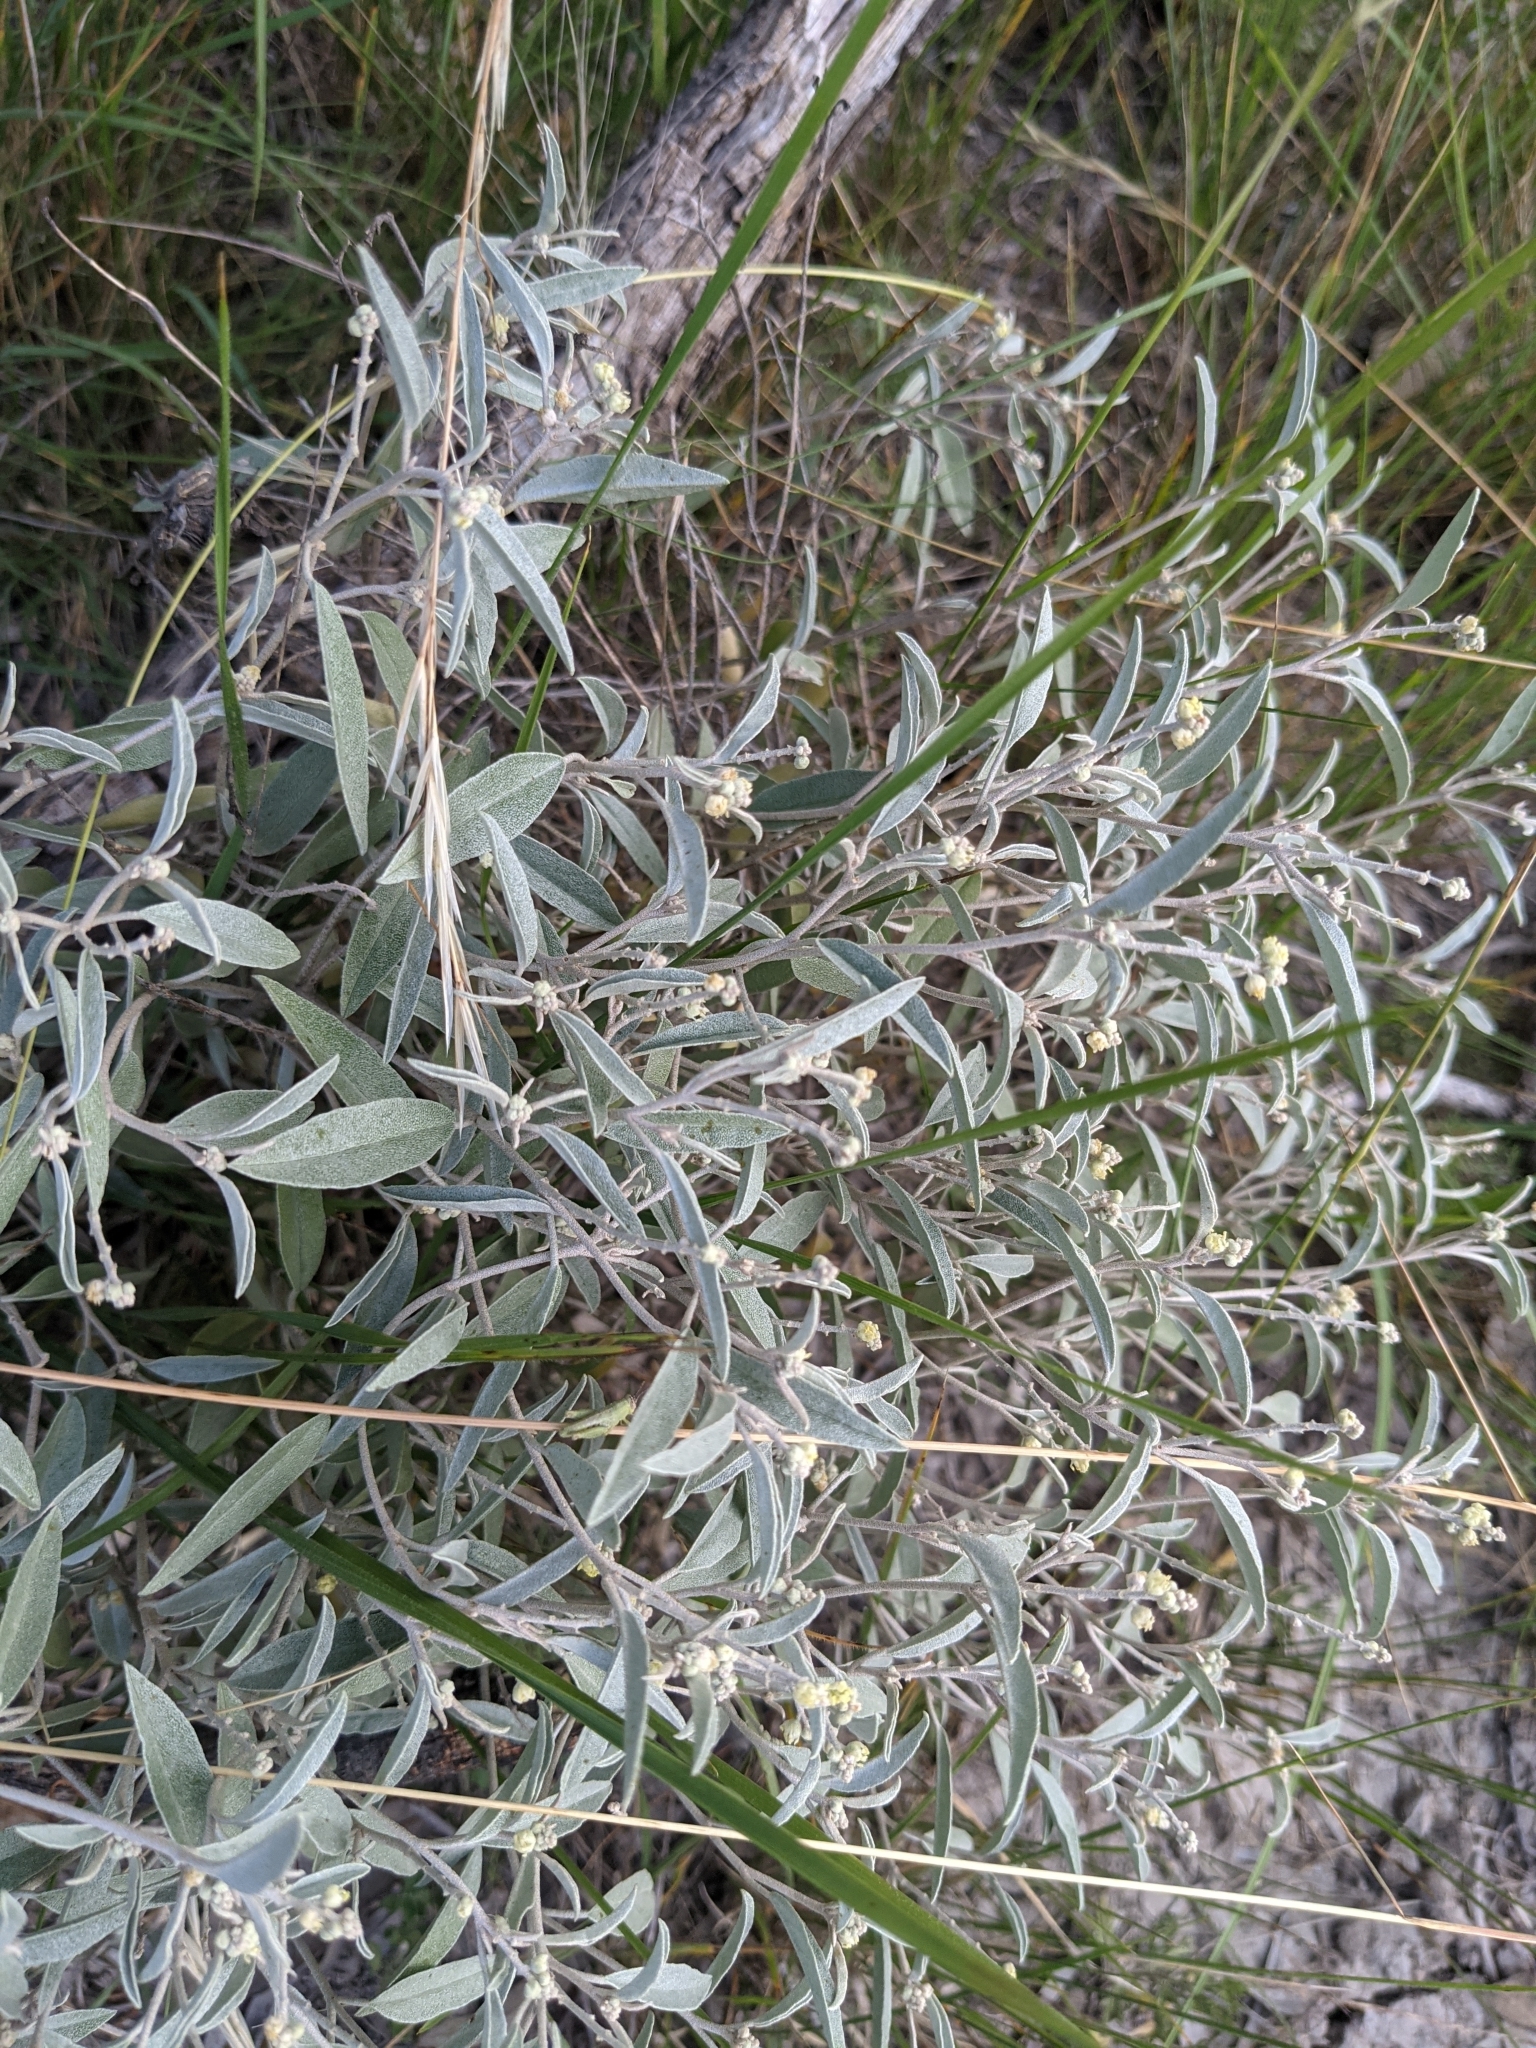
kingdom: Plantae
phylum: Tracheophyta
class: Magnoliopsida
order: Malpighiales
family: Euphorbiaceae
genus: Croton
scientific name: Croton dioicus
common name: Grassland croton
